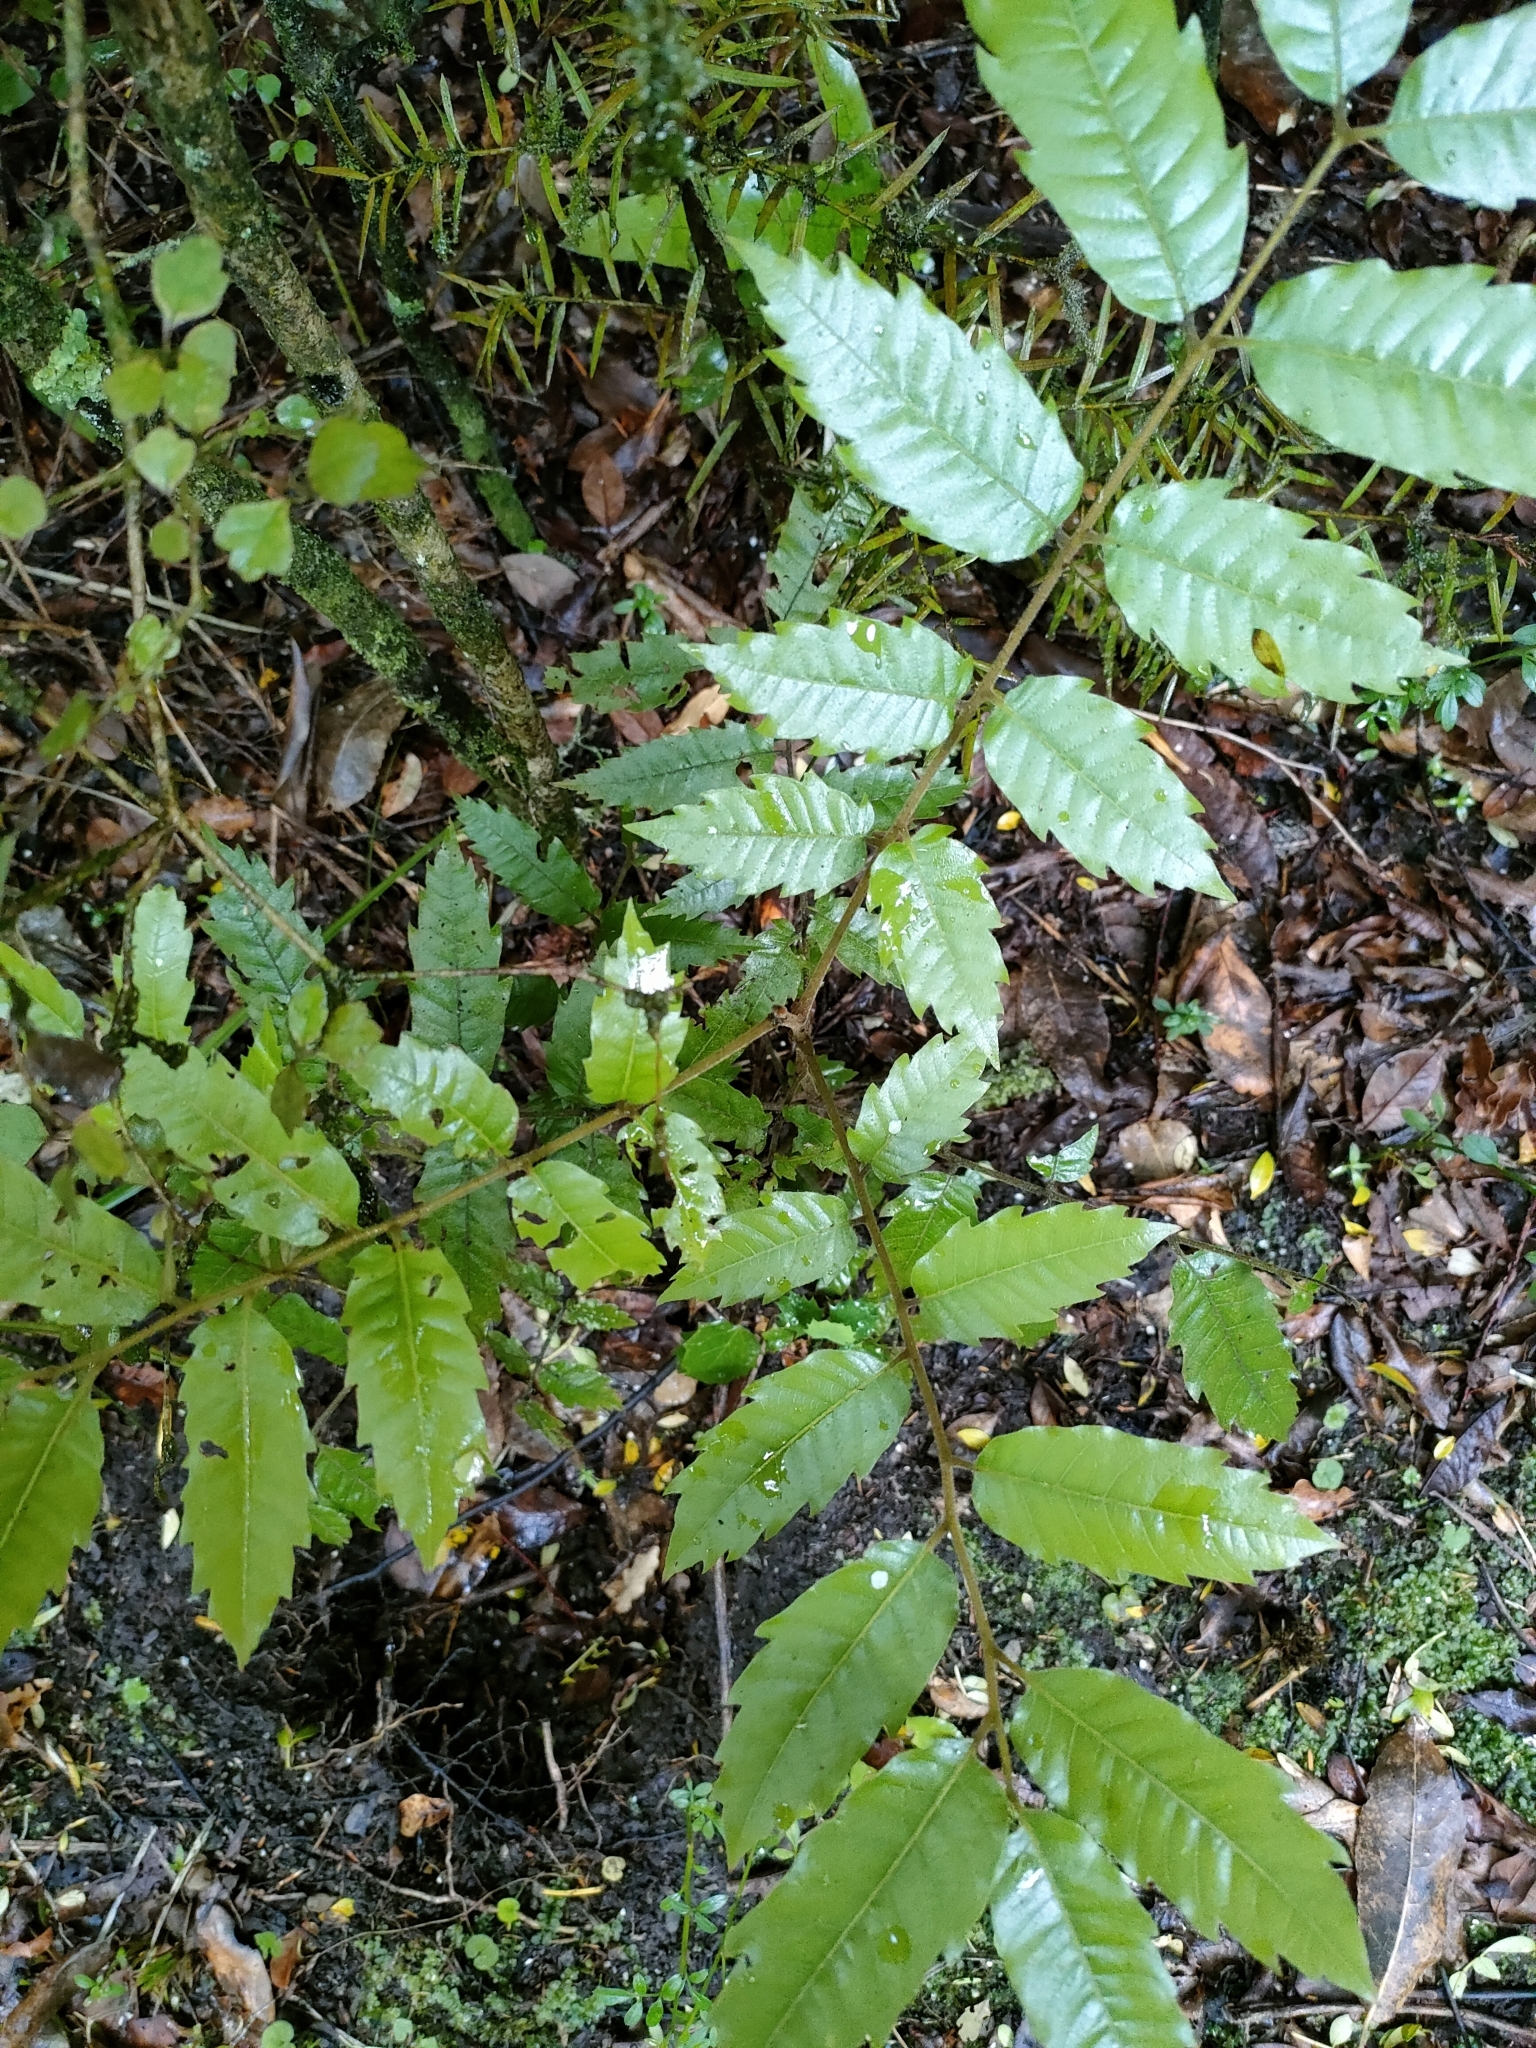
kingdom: Plantae
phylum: Tracheophyta
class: Magnoliopsida
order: Sapindales
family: Sapindaceae
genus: Alectryon
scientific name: Alectryon excelsus
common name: Three kings titoki
